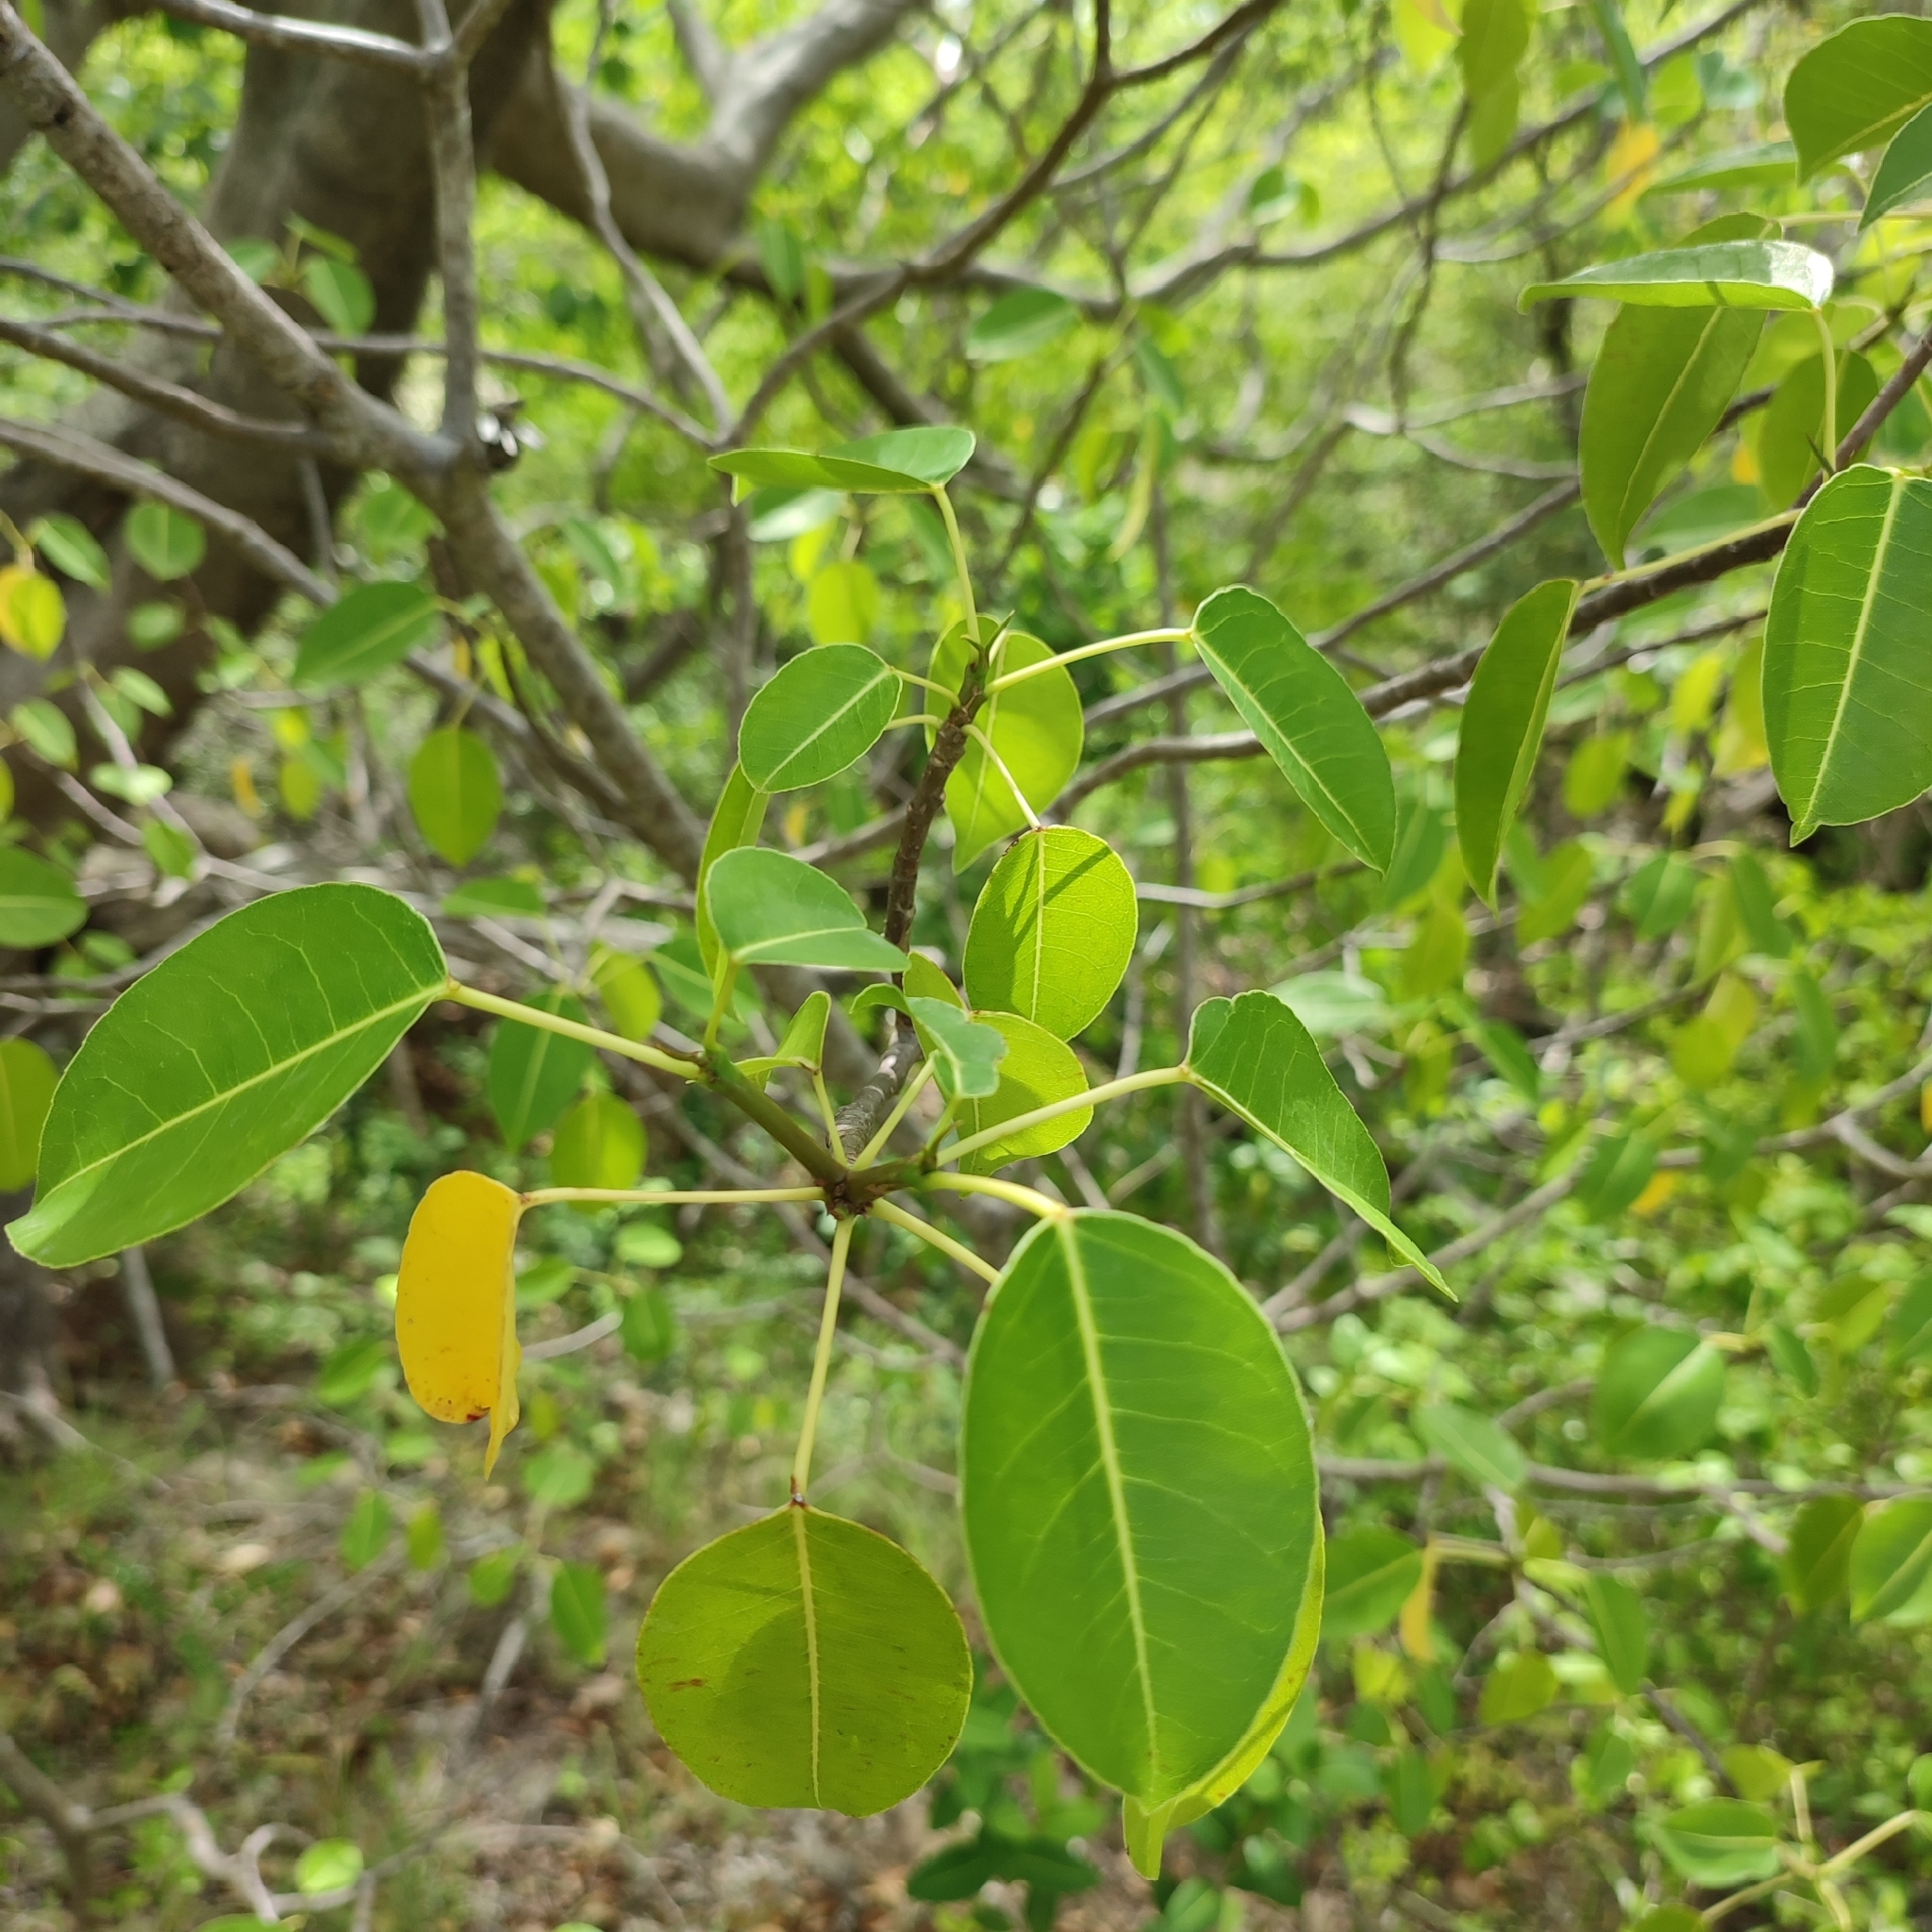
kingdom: Plantae
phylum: Tracheophyta
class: Magnoliopsida
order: Malpighiales
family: Euphorbiaceae
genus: Hippomane
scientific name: Hippomane mancinella
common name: Manchineel
